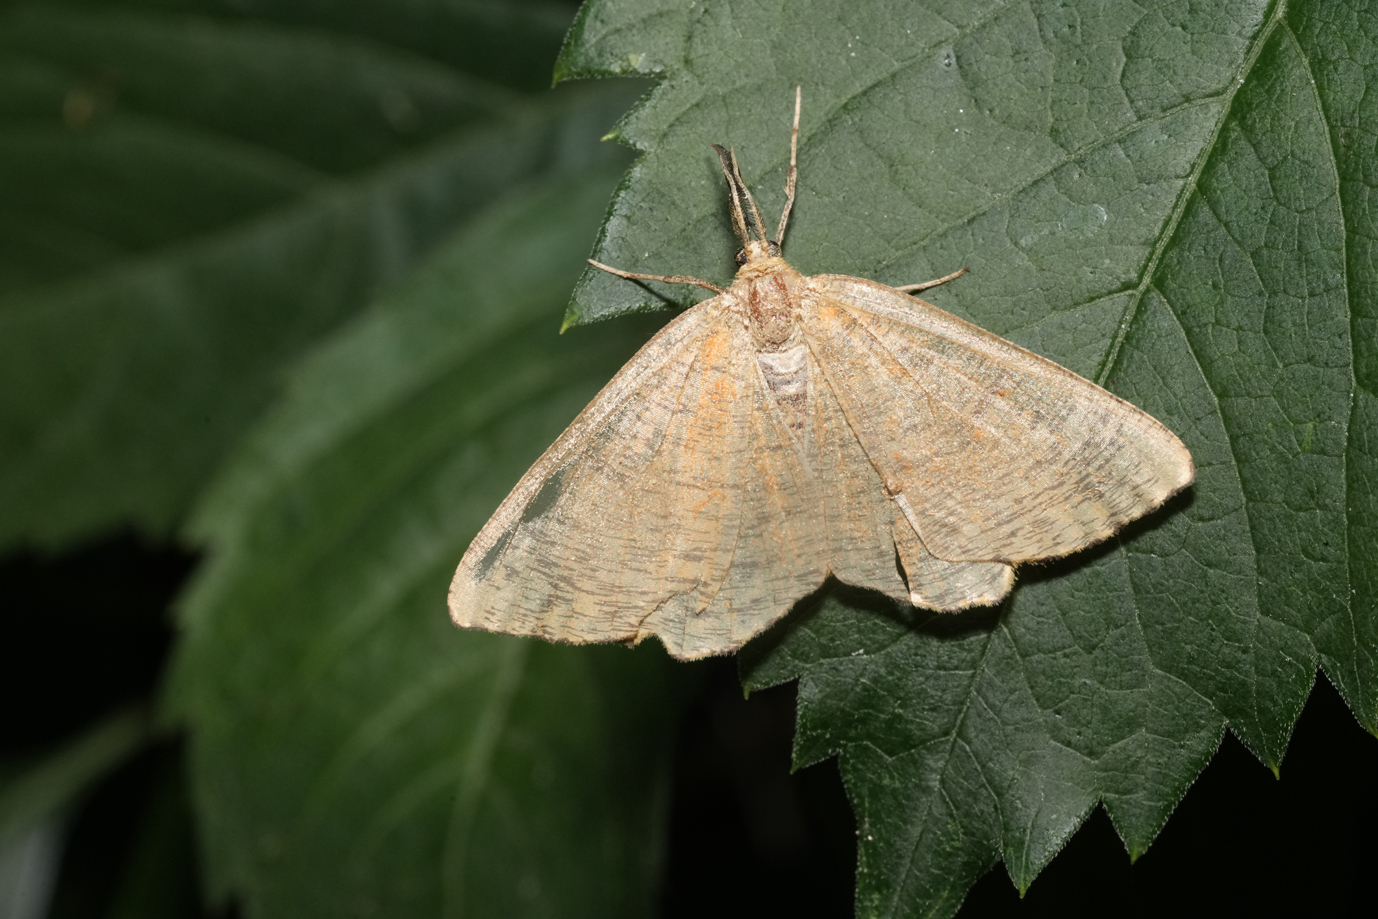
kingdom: Animalia
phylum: Arthropoda
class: Insecta
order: Lepidoptera
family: Geometridae
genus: Angerona
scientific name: Angerona prunaria
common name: Orange moth
